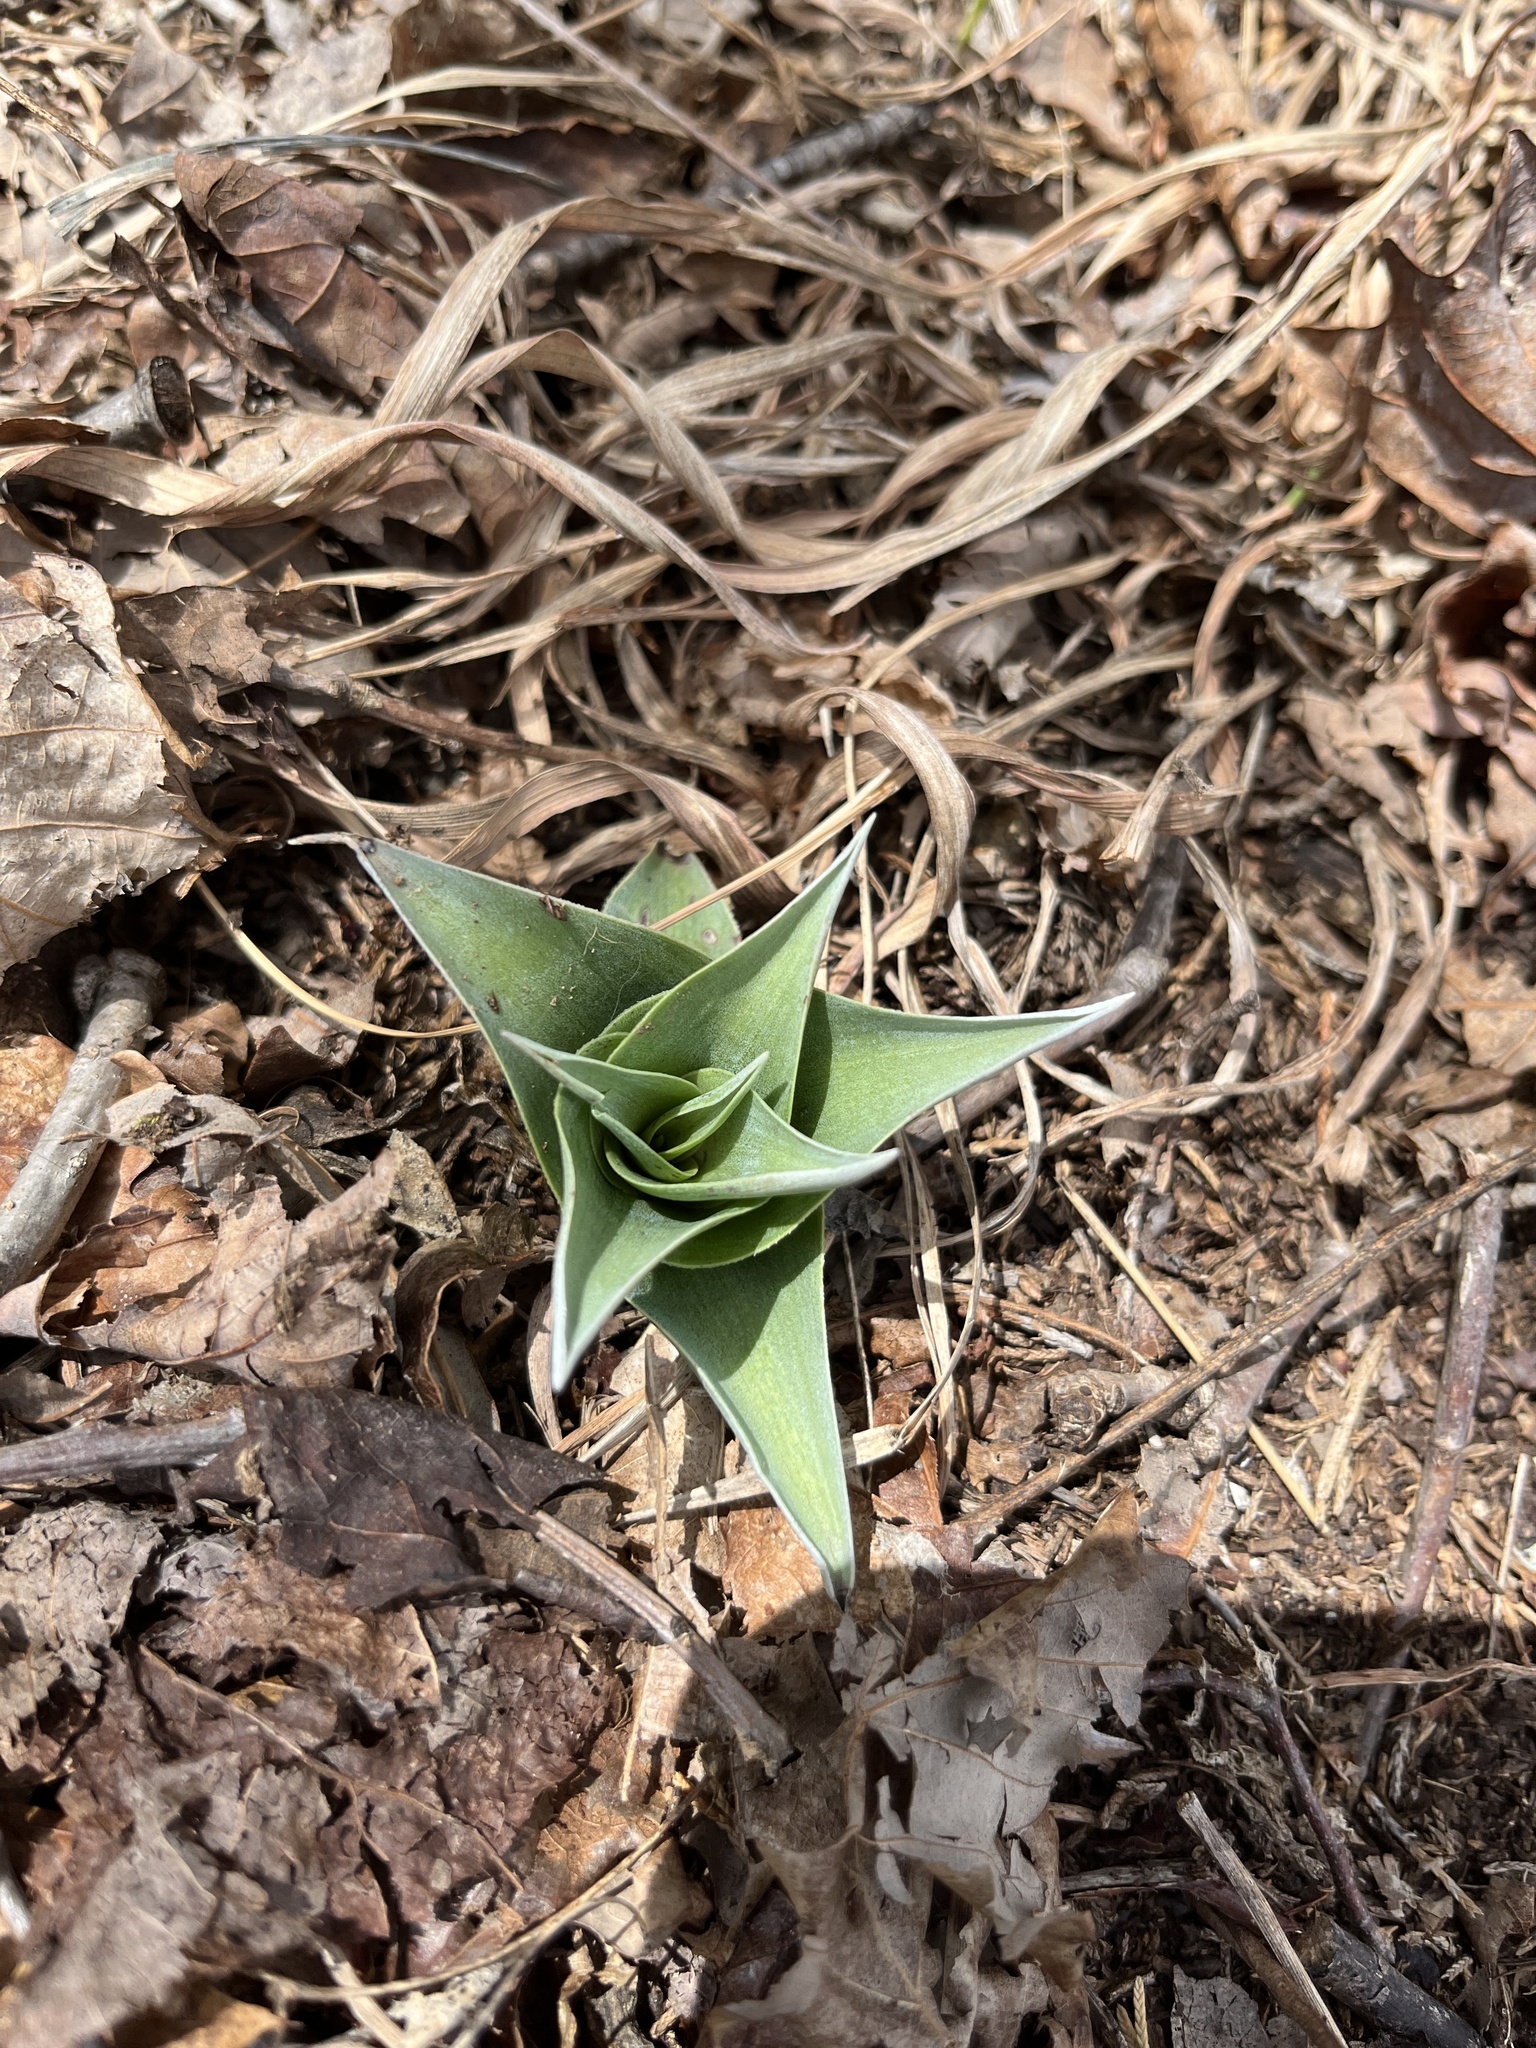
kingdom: Plantae
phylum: Tracheophyta
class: Liliopsida
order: Asparagales
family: Asparagaceae
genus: Agave
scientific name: Agave virginica
